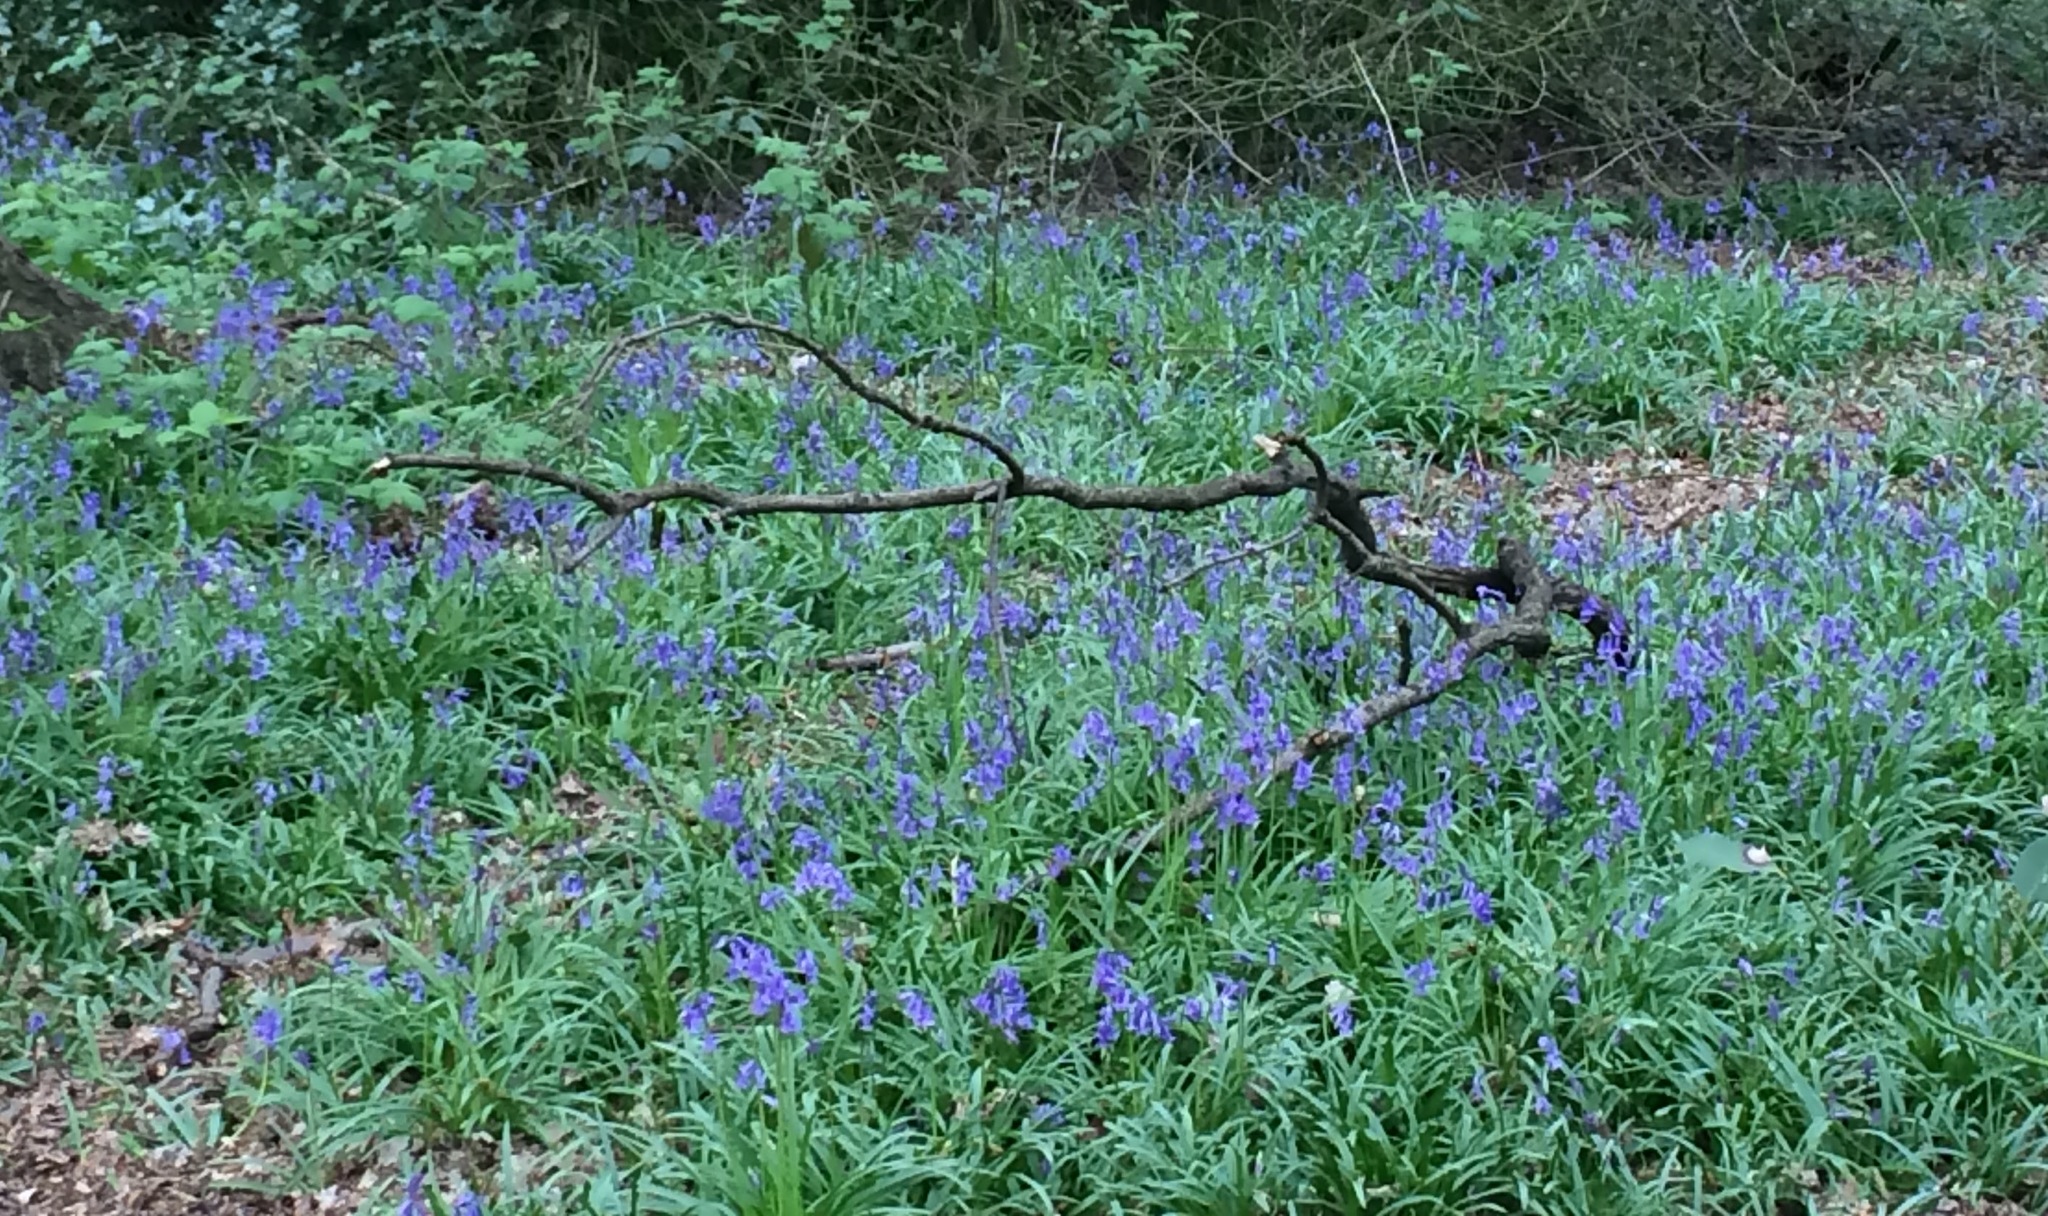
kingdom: Plantae
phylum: Tracheophyta
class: Liliopsida
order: Asparagales
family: Asparagaceae
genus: Hyacinthoides
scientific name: Hyacinthoides hispanica
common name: Spanish bluebell
